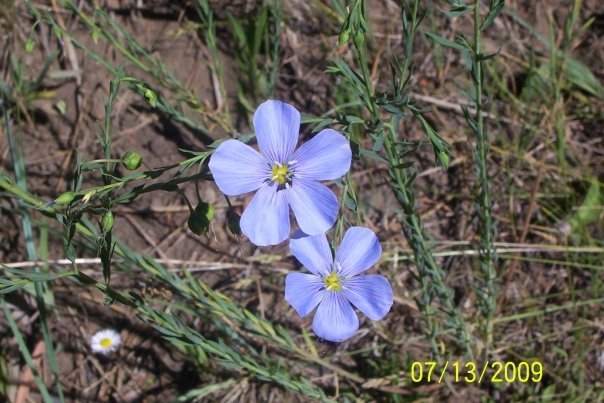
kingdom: Plantae
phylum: Tracheophyta
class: Magnoliopsida
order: Malpighiales
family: Linaceae
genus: Linum
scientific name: Linum lewisii
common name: Prairie flax
